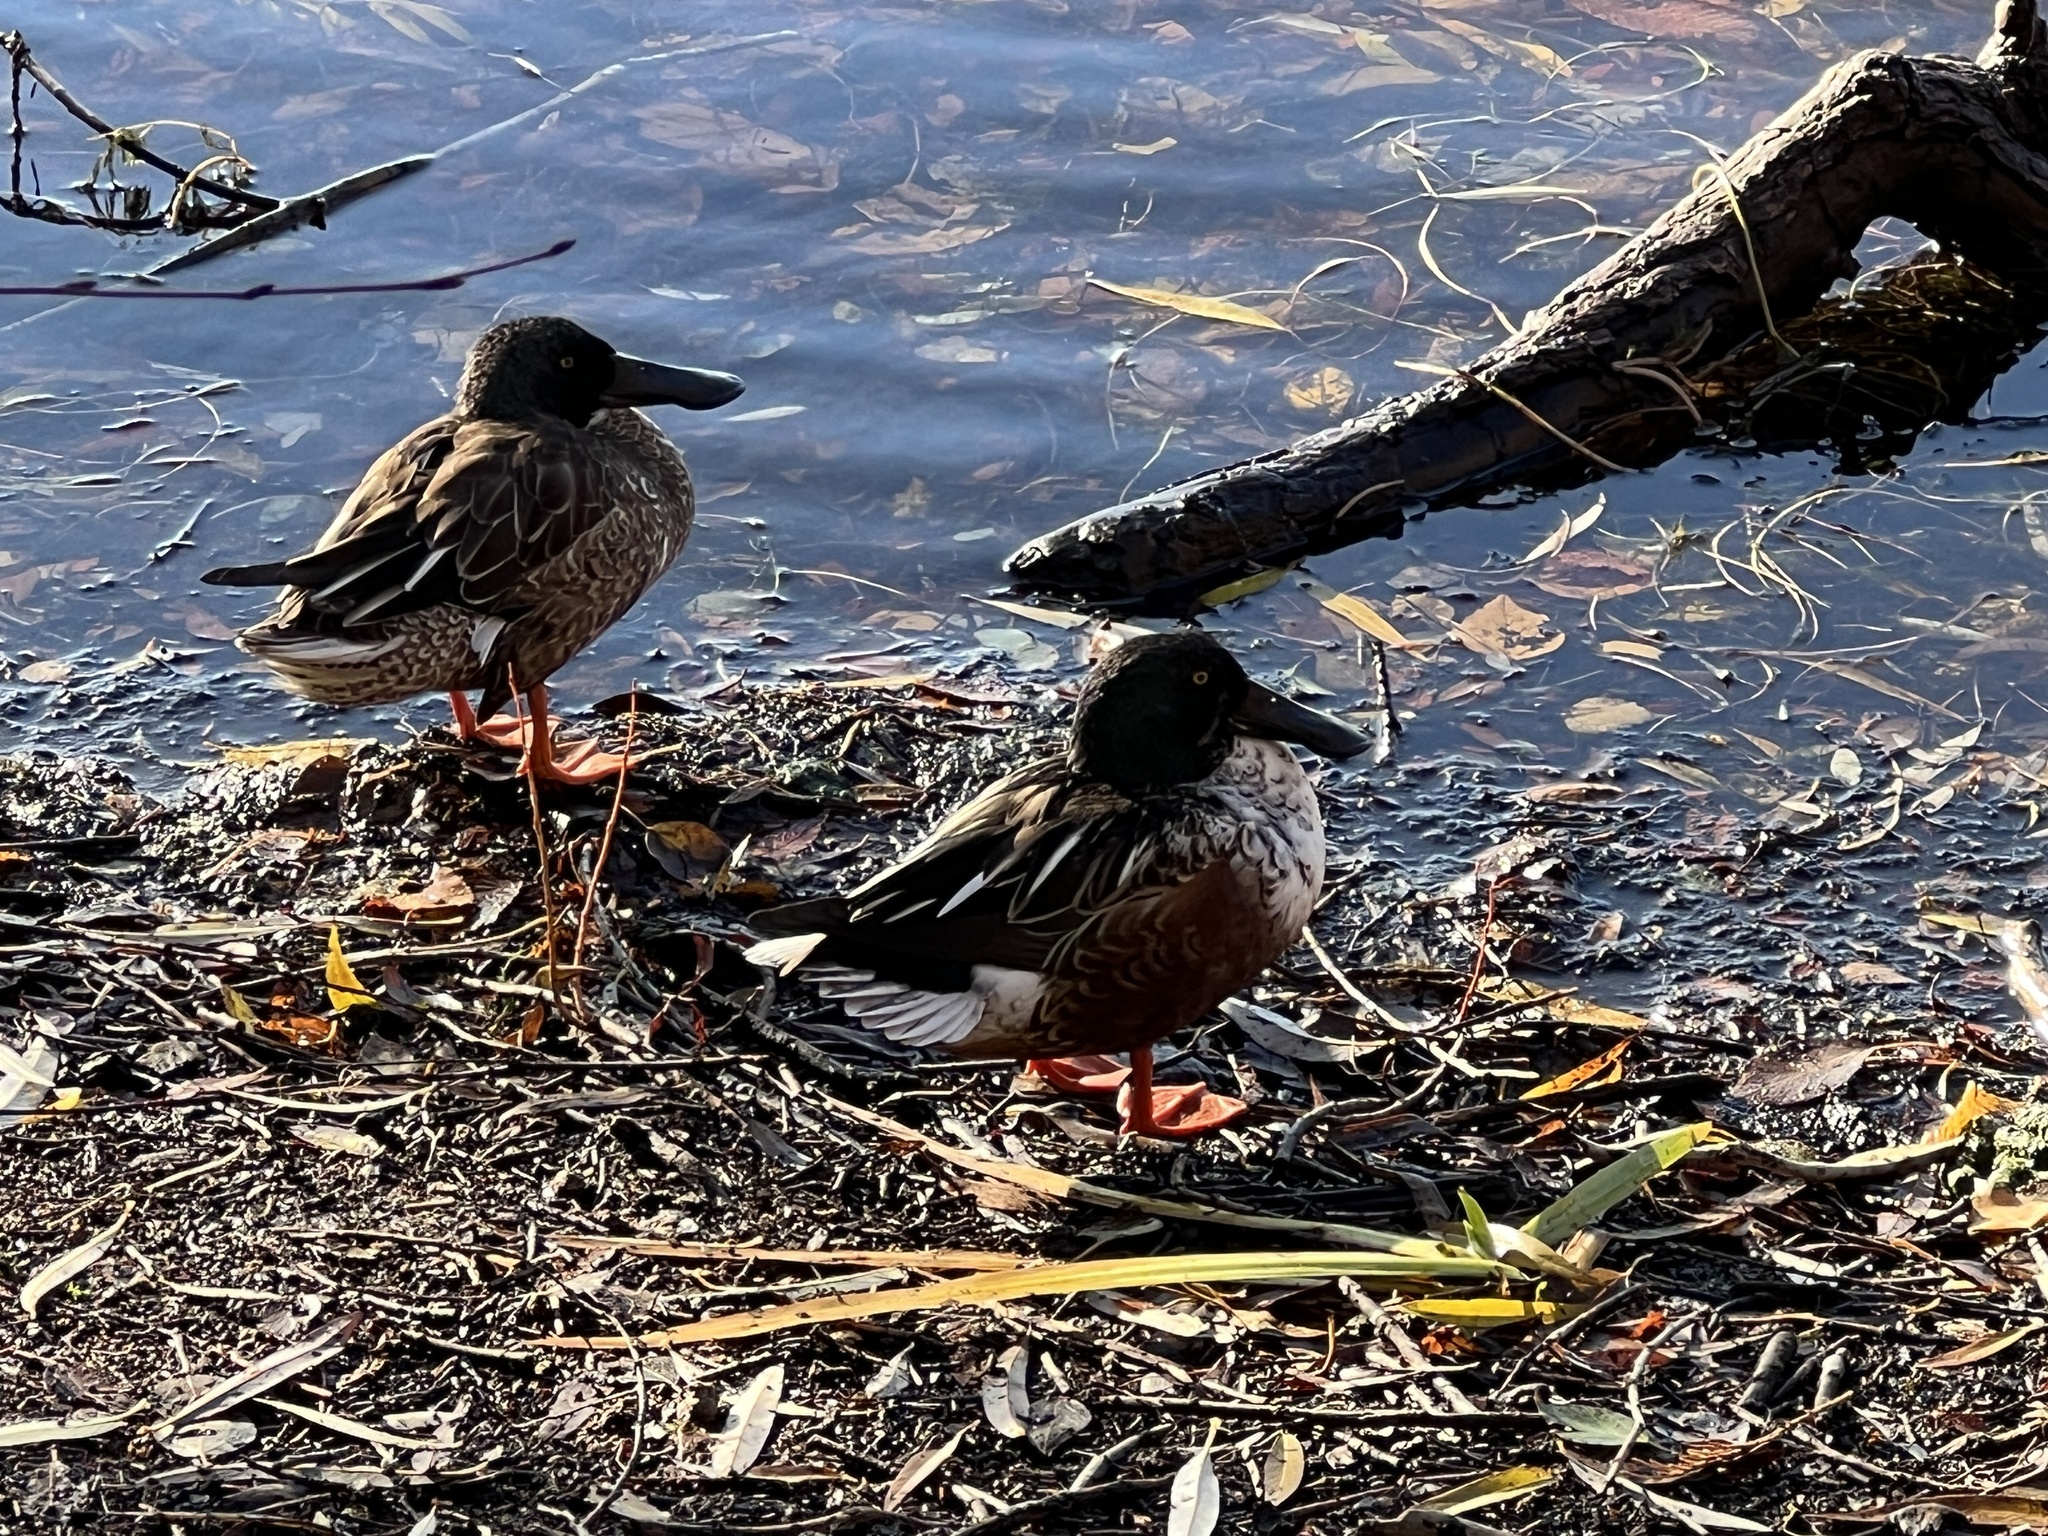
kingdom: Animalia
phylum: Chordata
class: Aves
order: Anseriformes
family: Anatidae
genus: Spatula
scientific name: Spatula clypeata
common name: Northern shoveler
